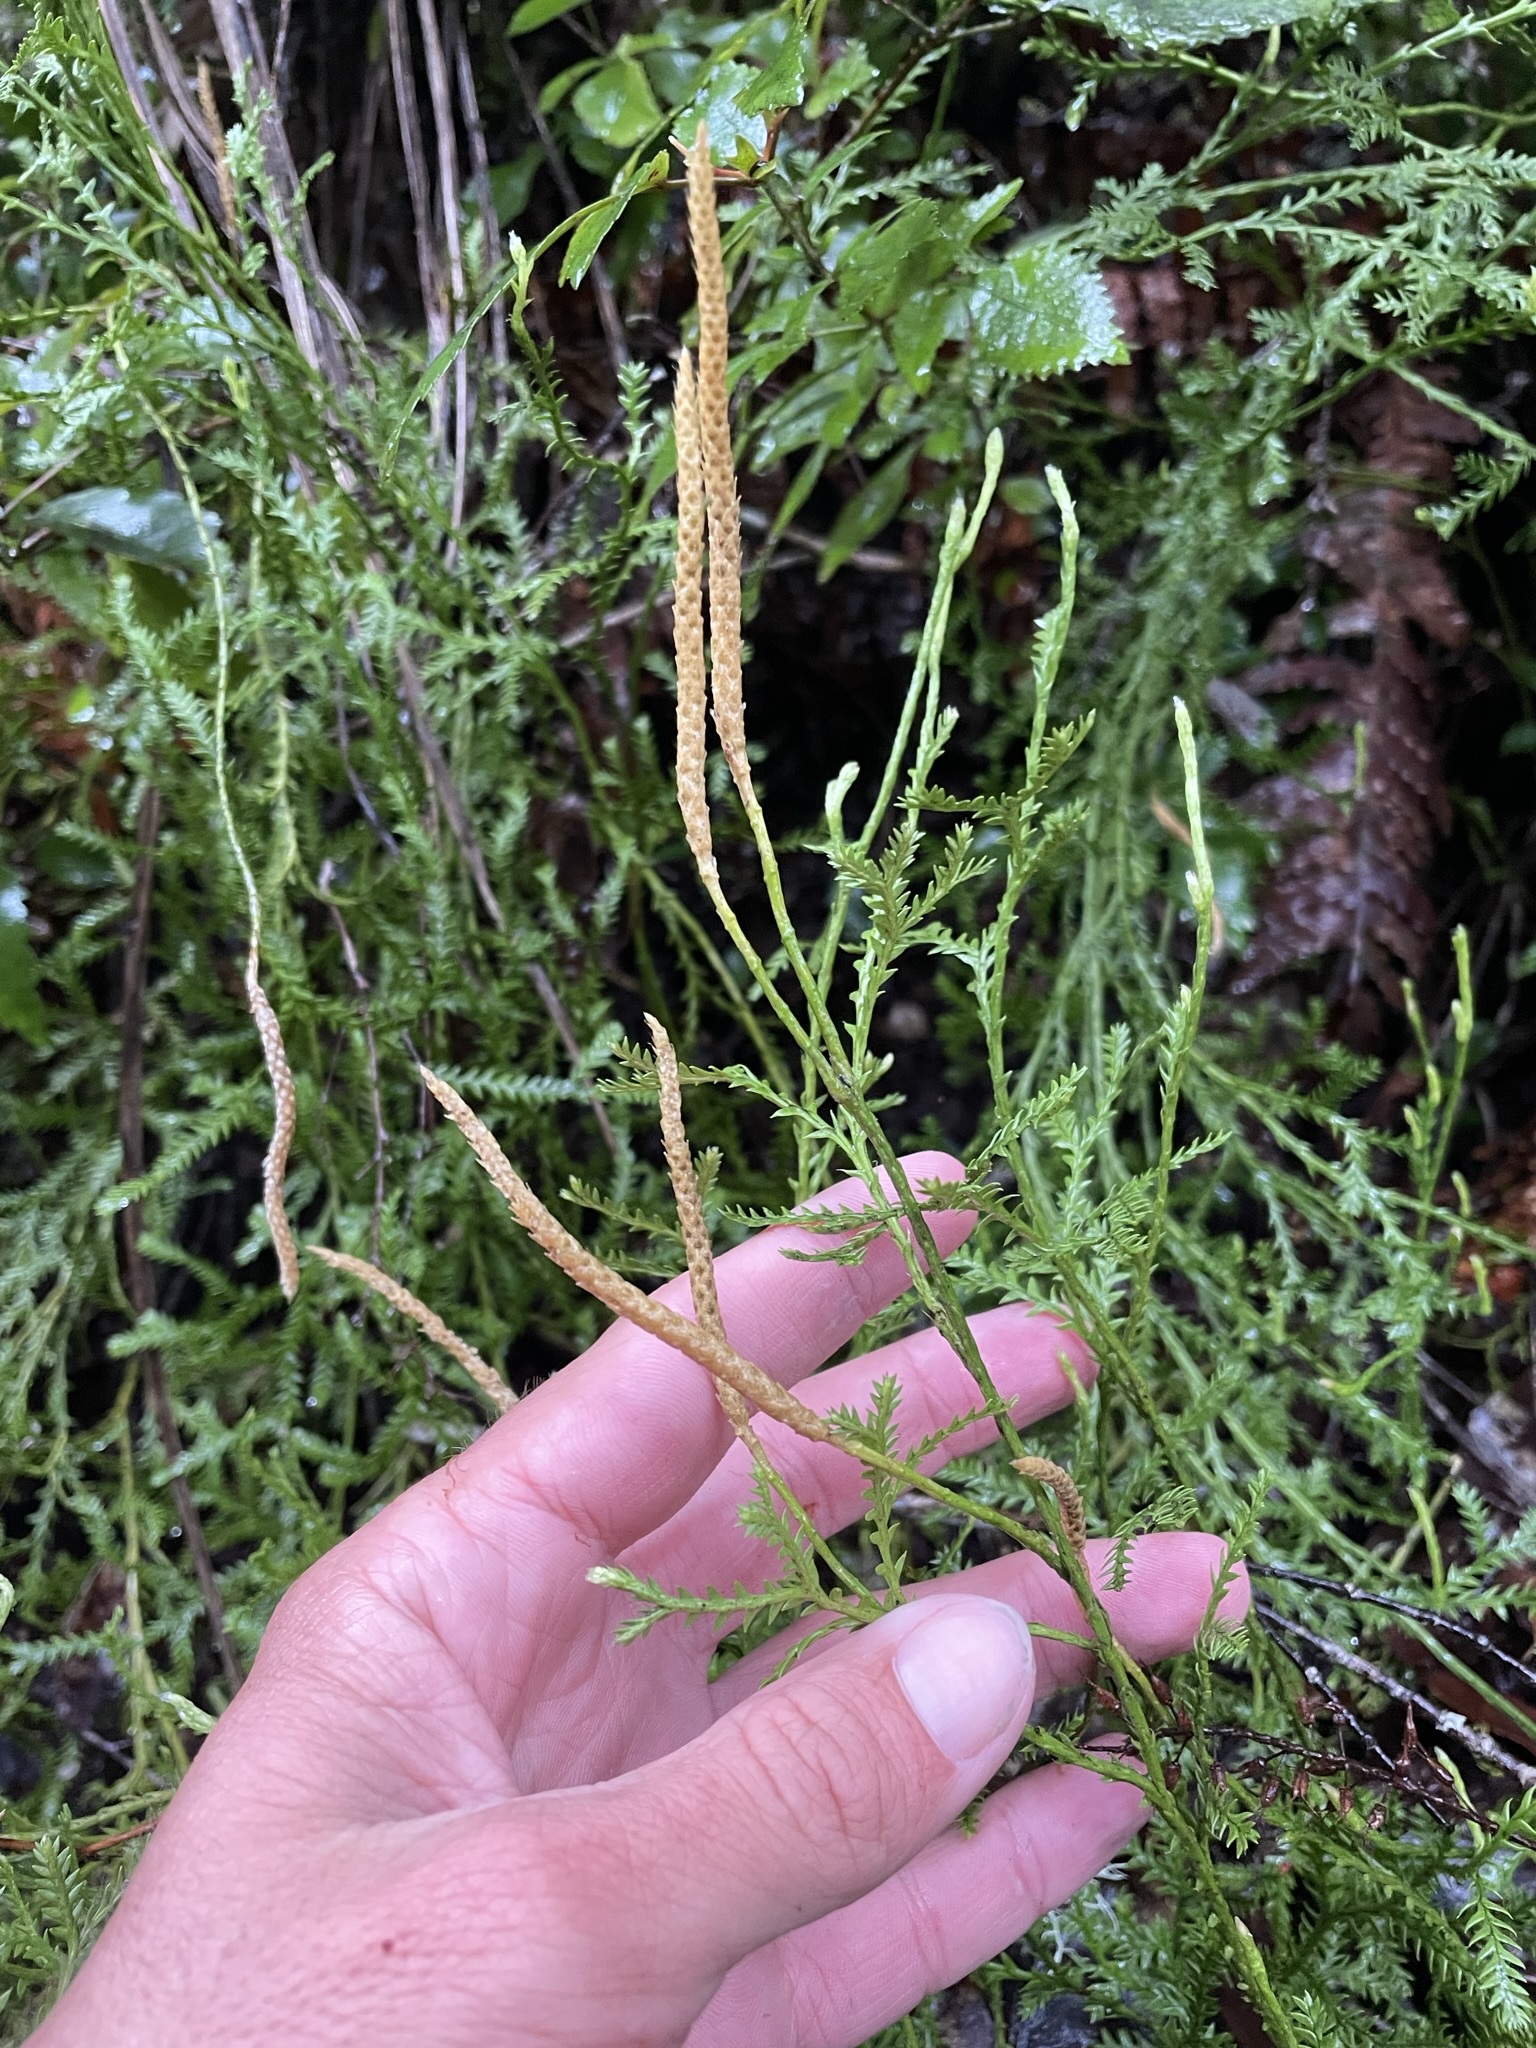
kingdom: Plantae
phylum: Tracheophyta
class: Lycopodiopsida
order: Lycopodiales
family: Lycopodiaceae
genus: Diphasium
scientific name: Diphasium scariosum
